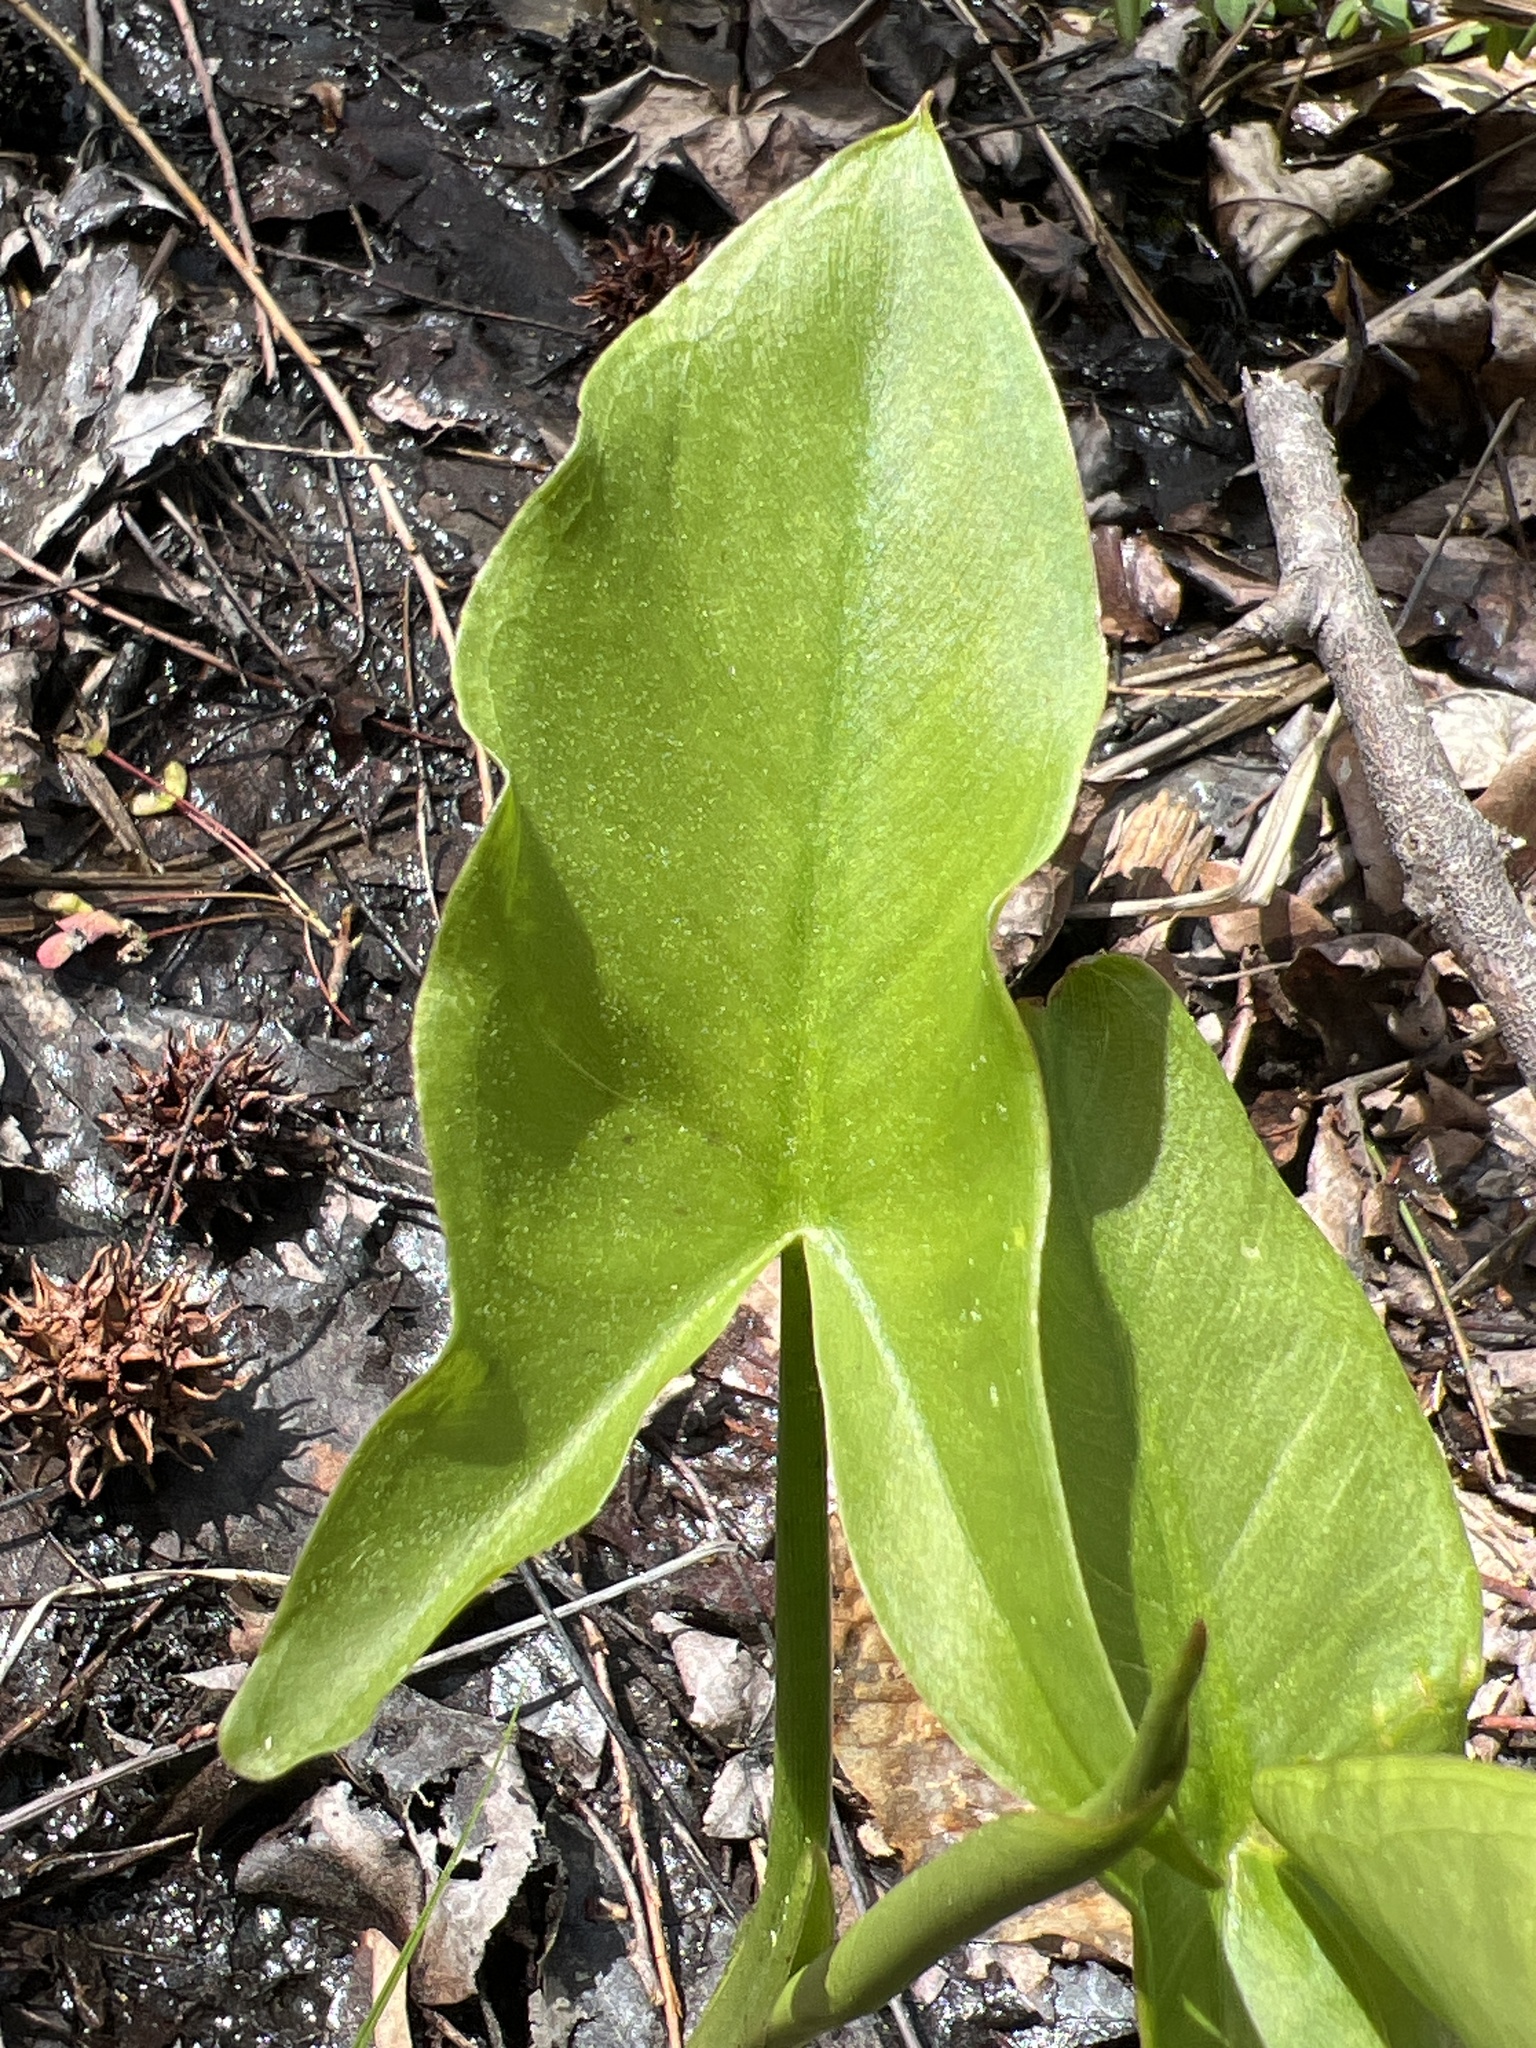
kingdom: Plantae
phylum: Tracheophyta
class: Liliopsida
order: Alismatales
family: Araceae
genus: Peltandra
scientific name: Peltandra virginica
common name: Arrow arum
